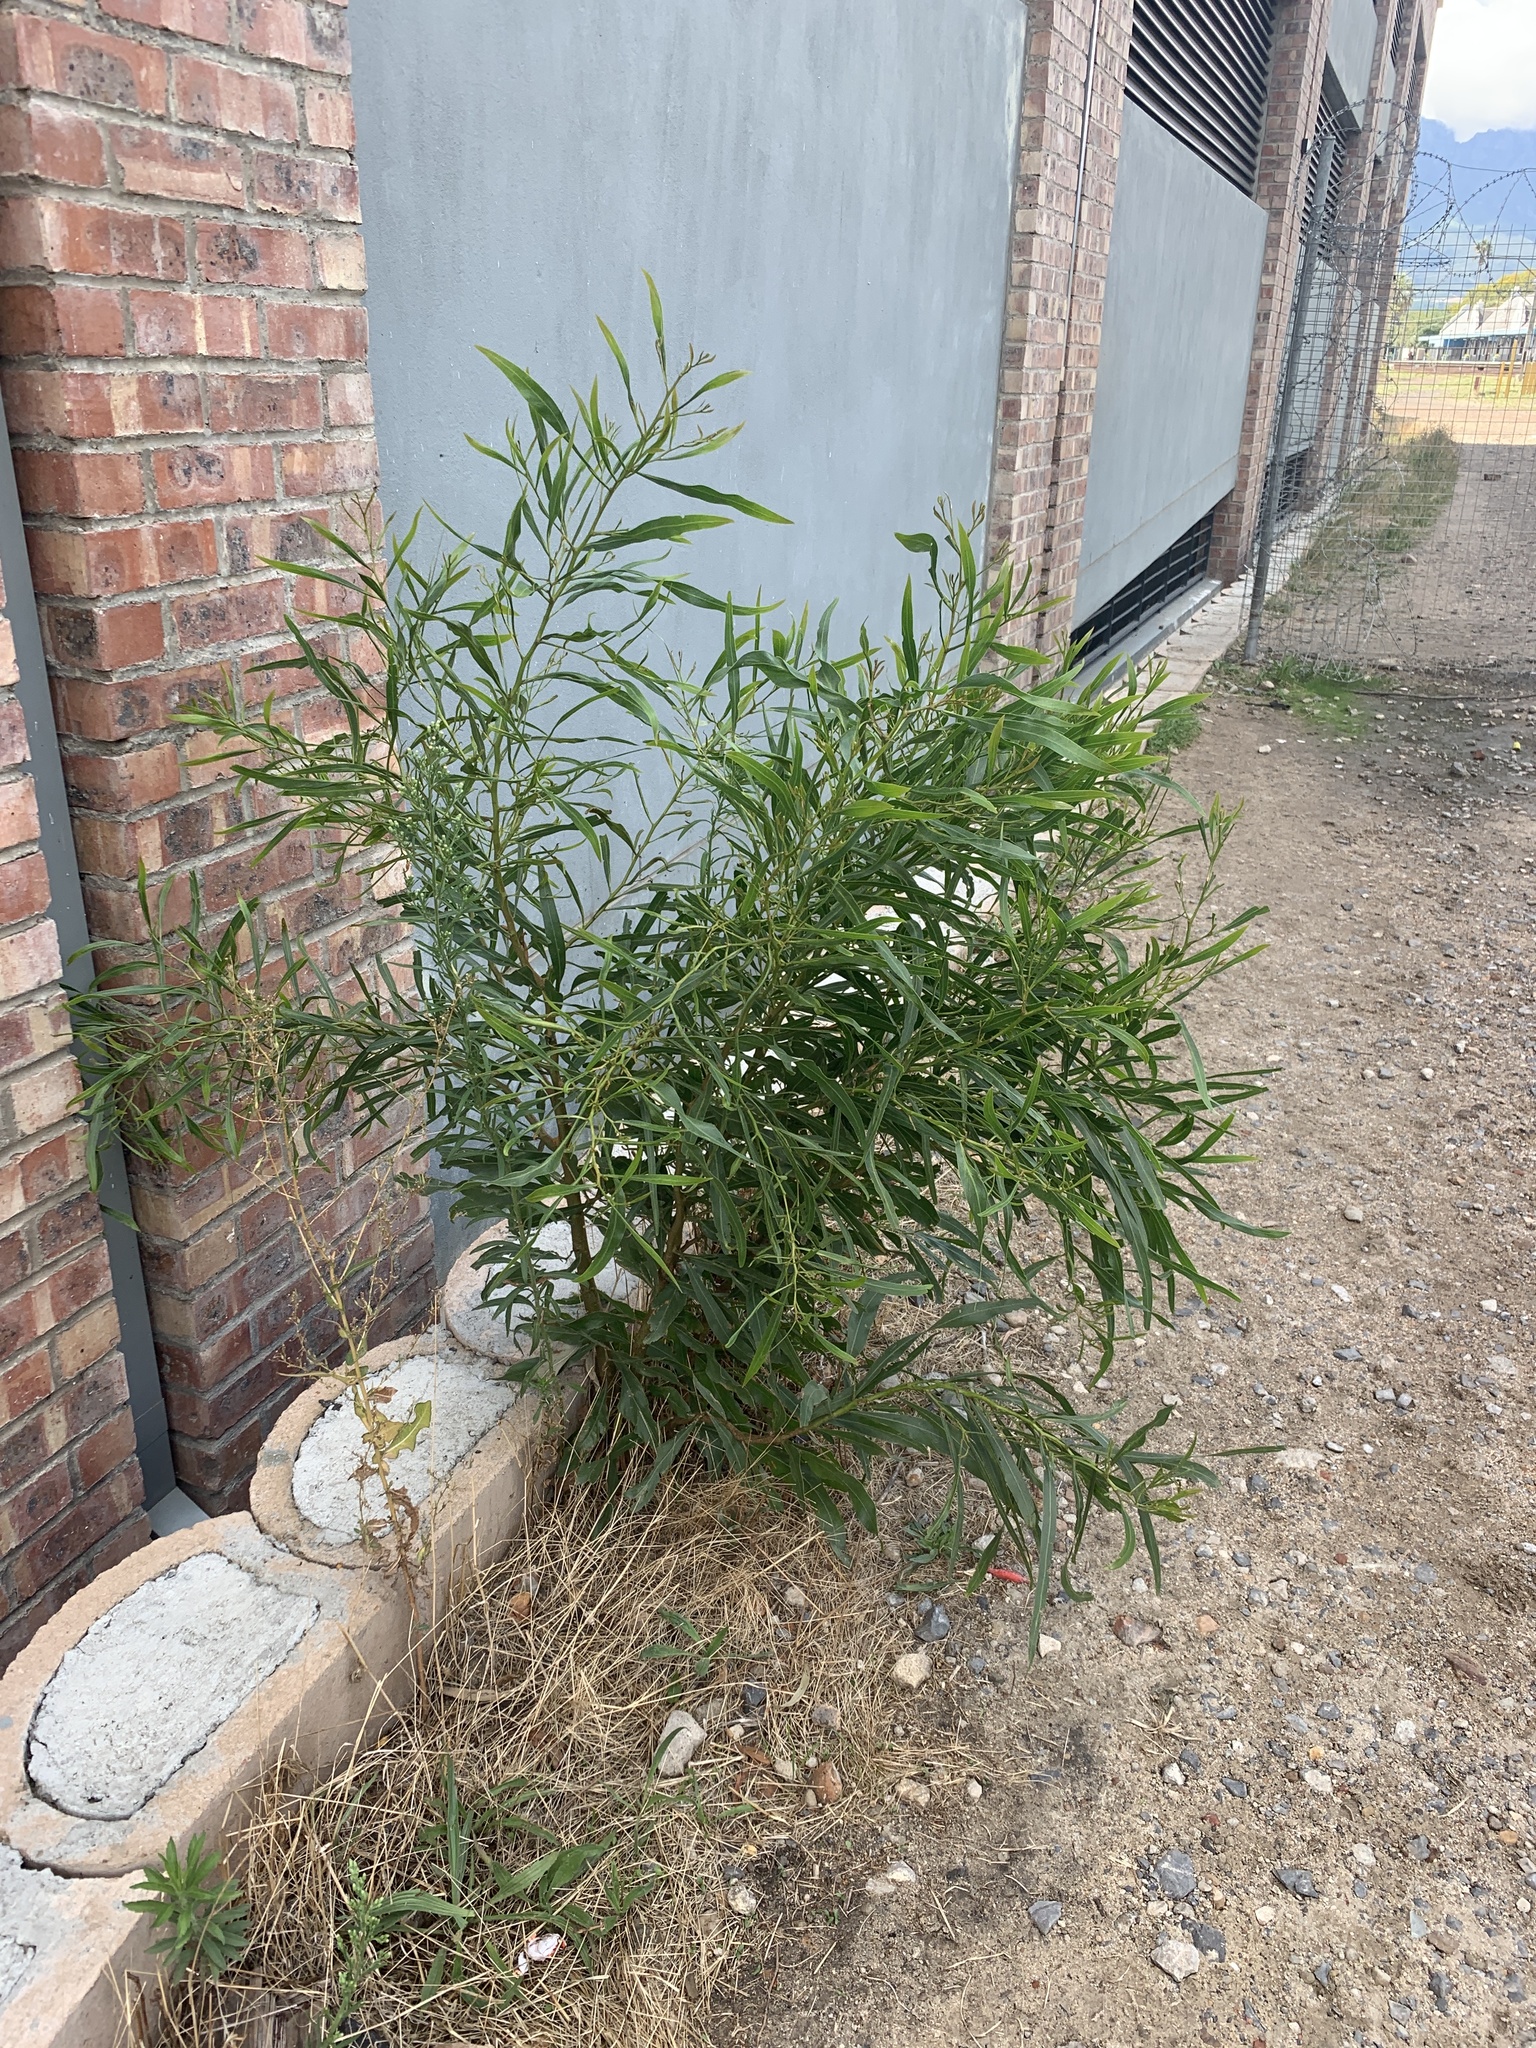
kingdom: Plantae
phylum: Tracheophyta
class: Magnoliopsida
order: Fabales
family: Fabaceae
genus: Acacia
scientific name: Acacia saligna
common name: Orange wattle
